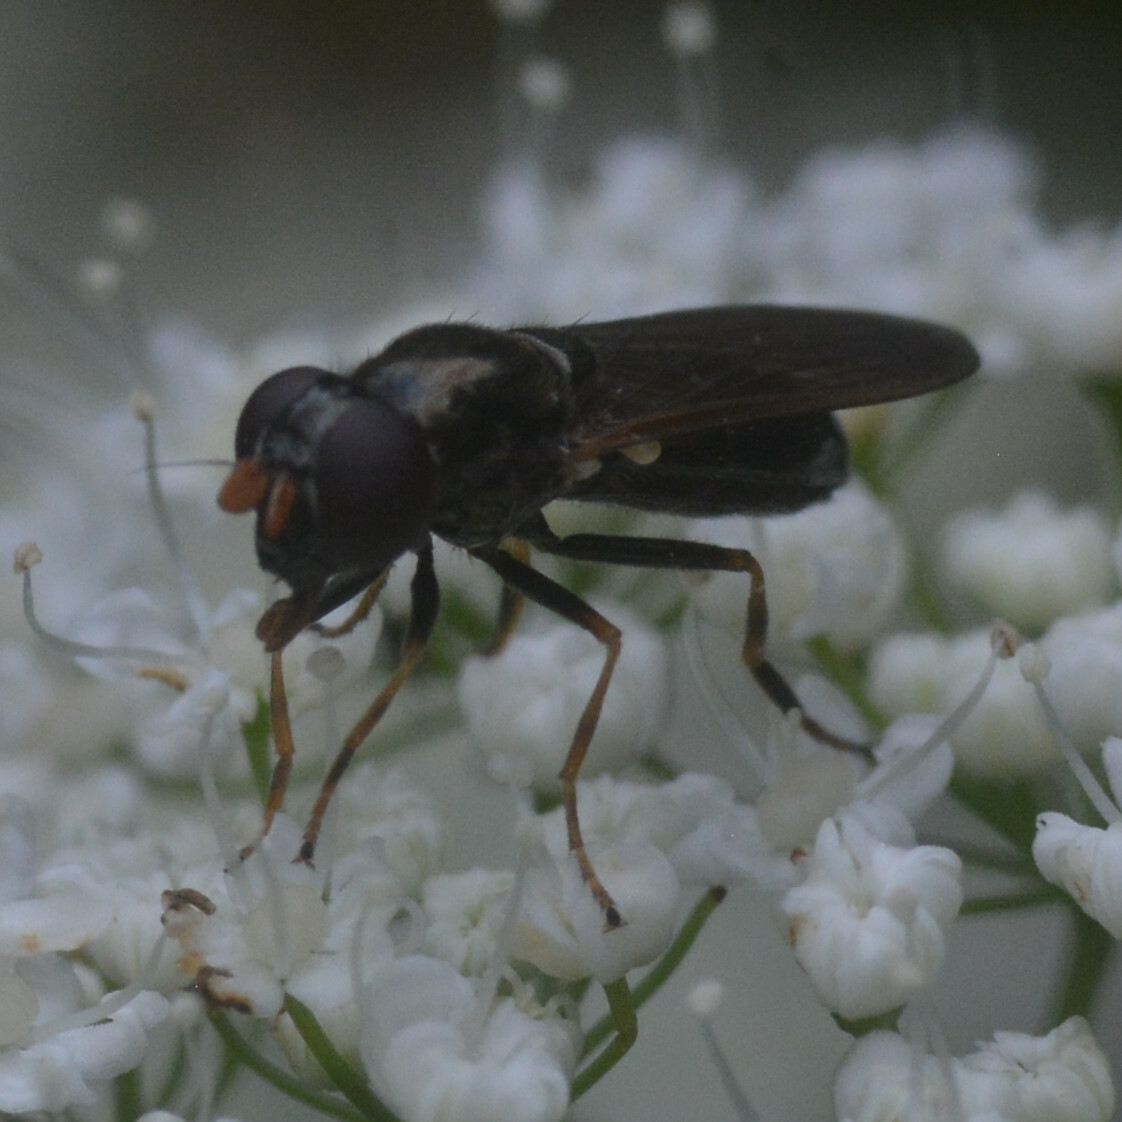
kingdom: Animalia
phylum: Arthropoda
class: Insecta
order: Diptera
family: Syrphidae
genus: Cheilosia
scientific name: Cheilosia pagana
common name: Hover fly
